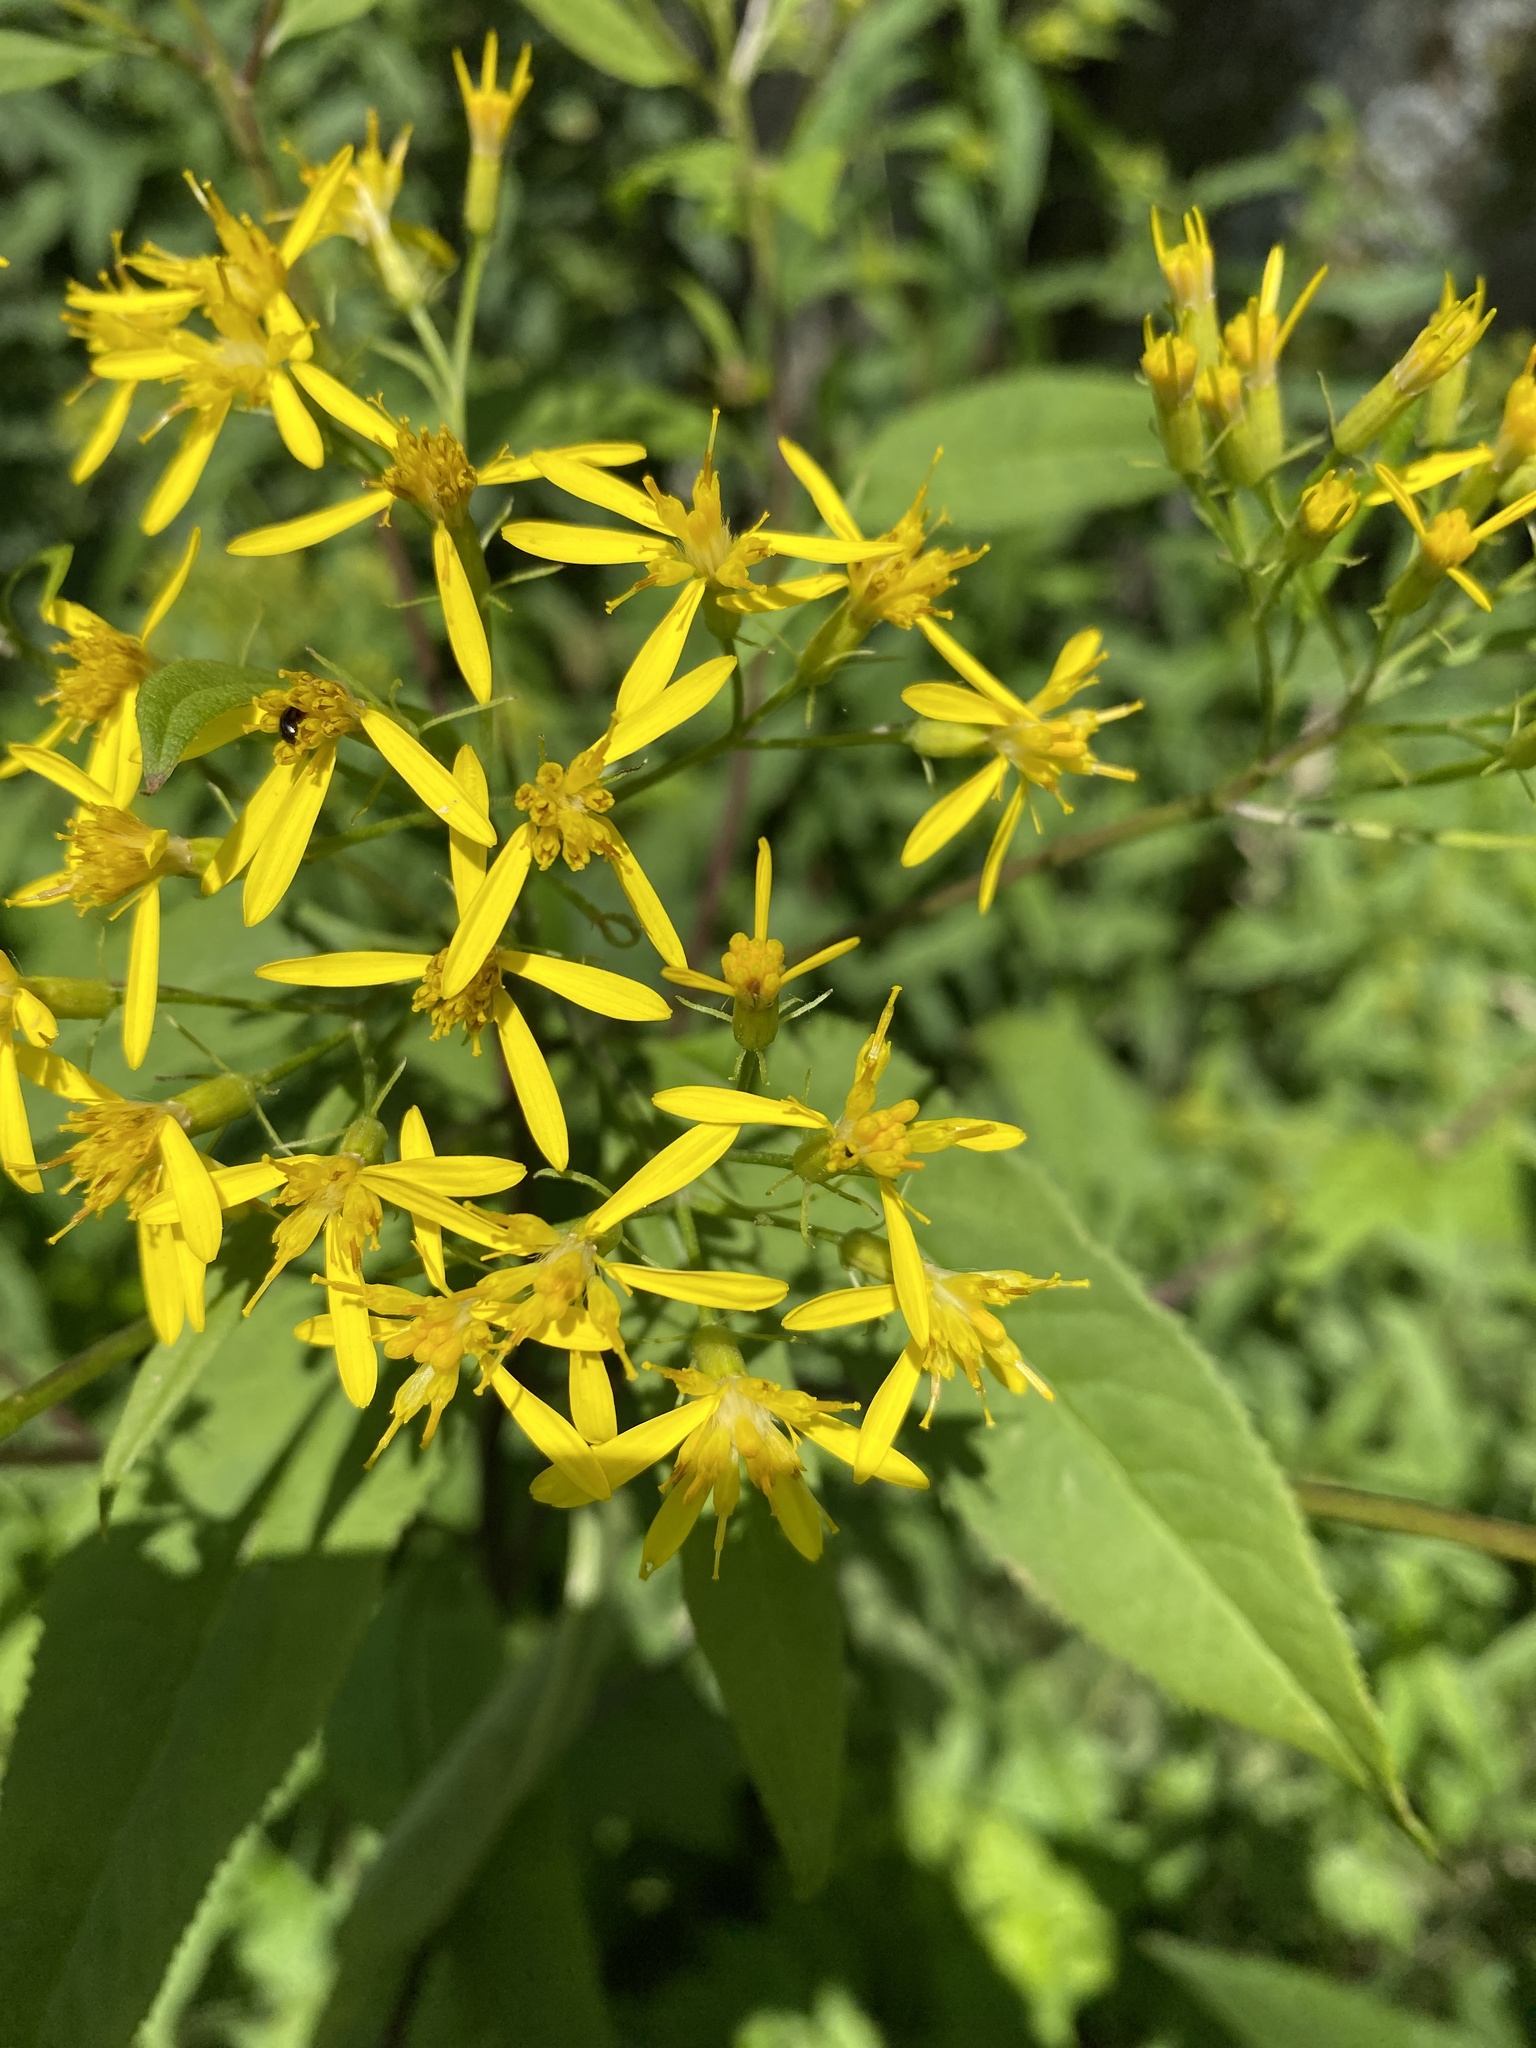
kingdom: Plantae
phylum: Tracheophyta
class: Magnoliopsida
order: Asterales
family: Asteraceae
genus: Senecio
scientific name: Senecio ovatus
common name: Wood ragwort
